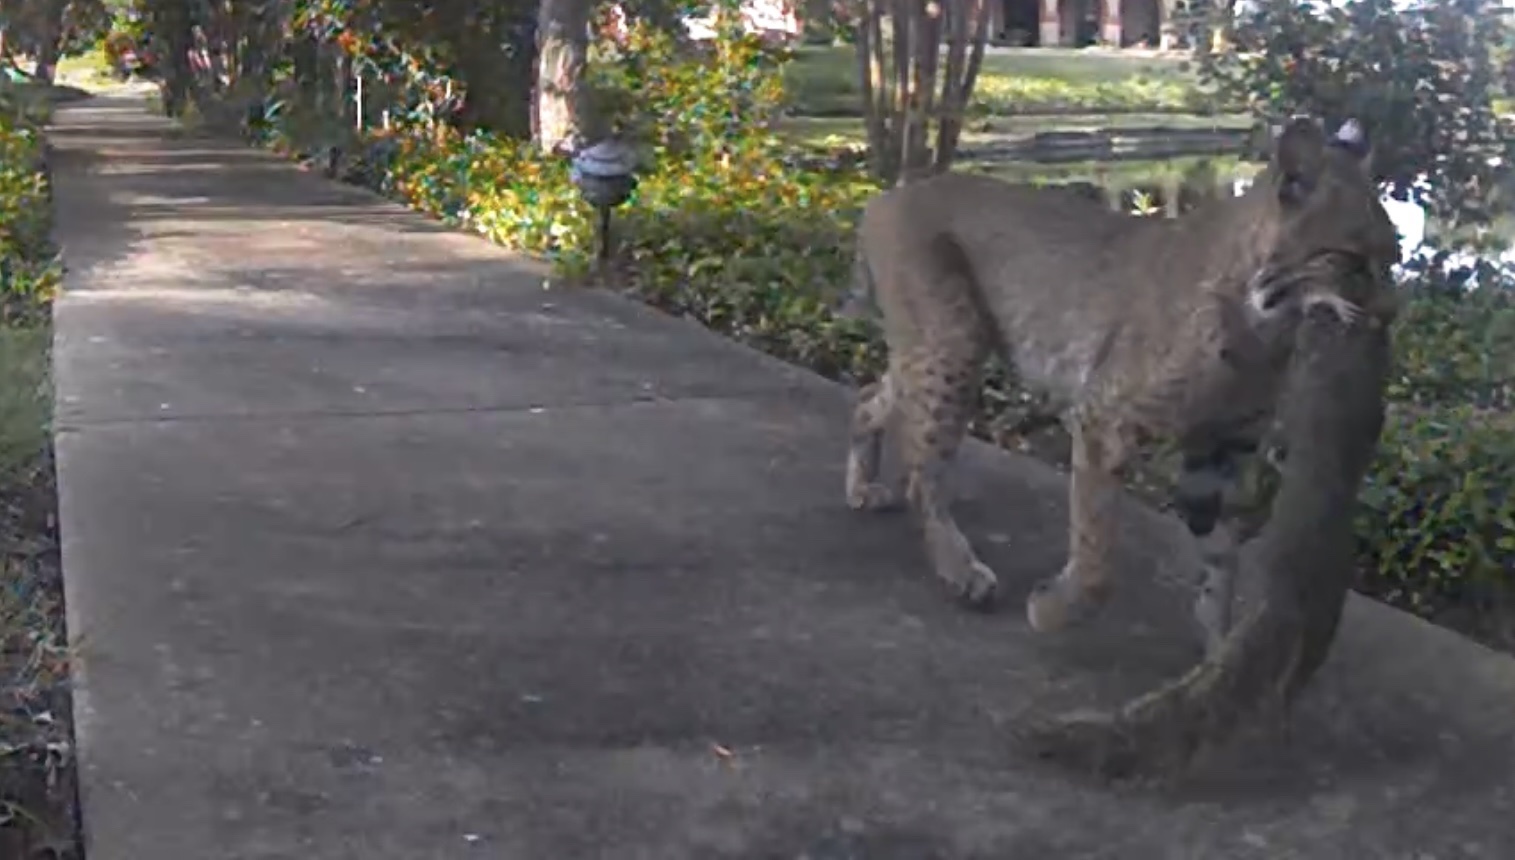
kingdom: Animalia
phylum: Chordata
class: Mammalia
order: Carnivora
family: Felidae
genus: Lynx
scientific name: Lynx rufus
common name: Bobcat
